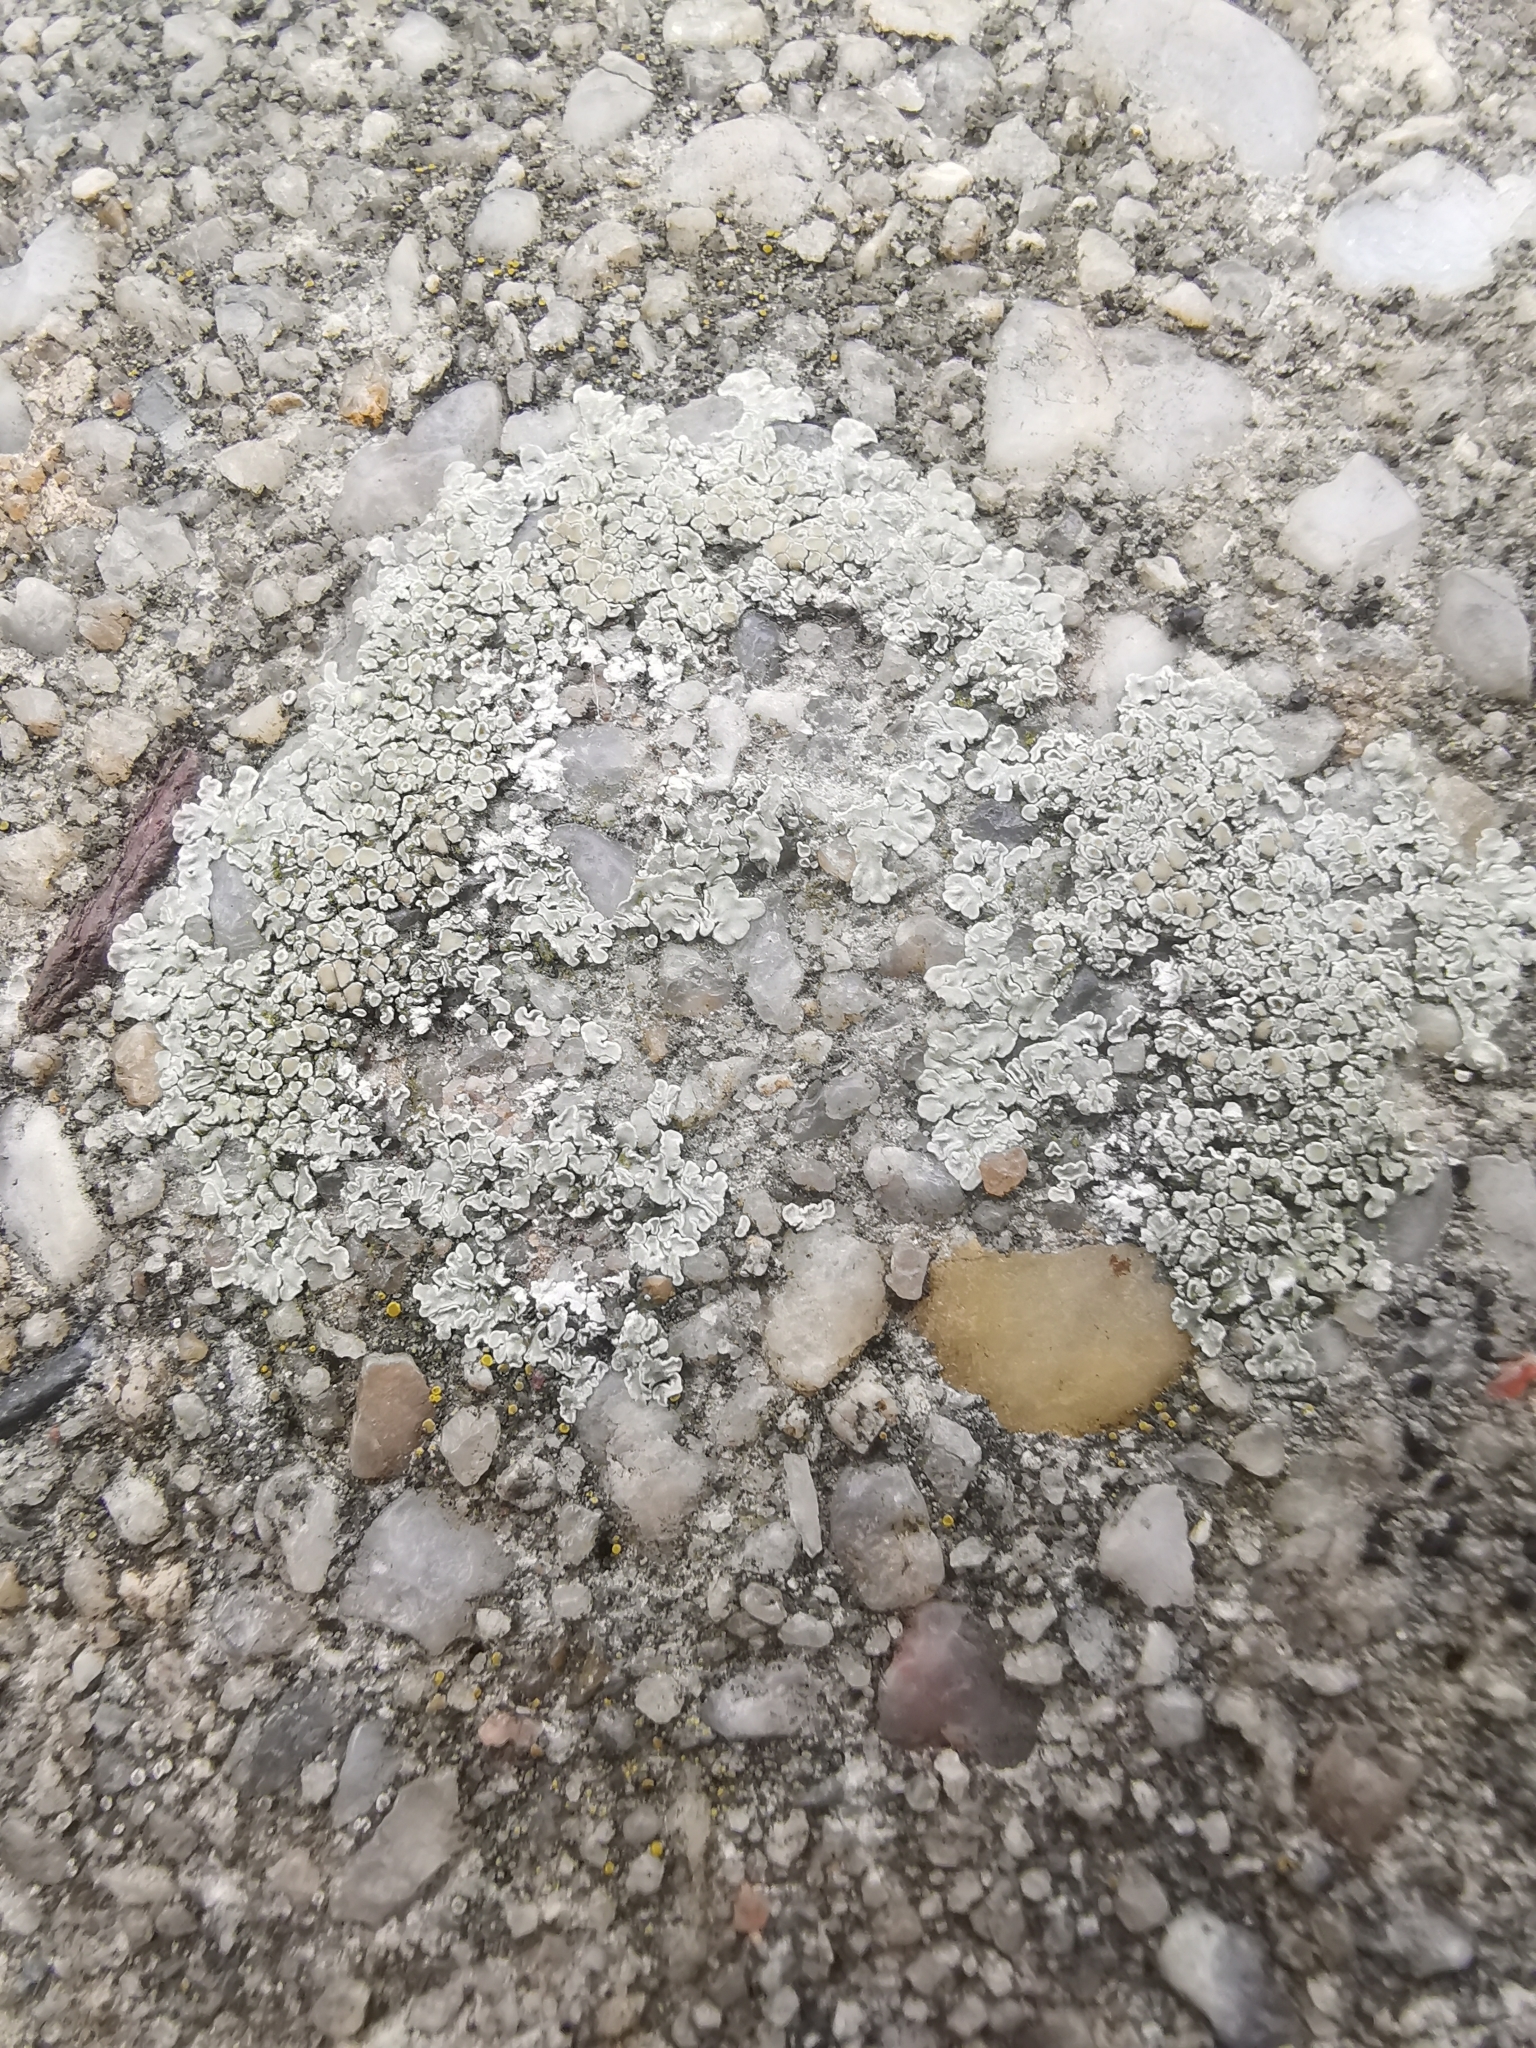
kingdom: Fungi
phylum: Ascomycota
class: Lecanoromycetes
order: Lecanorales
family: Lecanoraceae
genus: Protoparmeliopsis
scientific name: Protoparmeliopsis muralis
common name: Stonewall rim lichen
